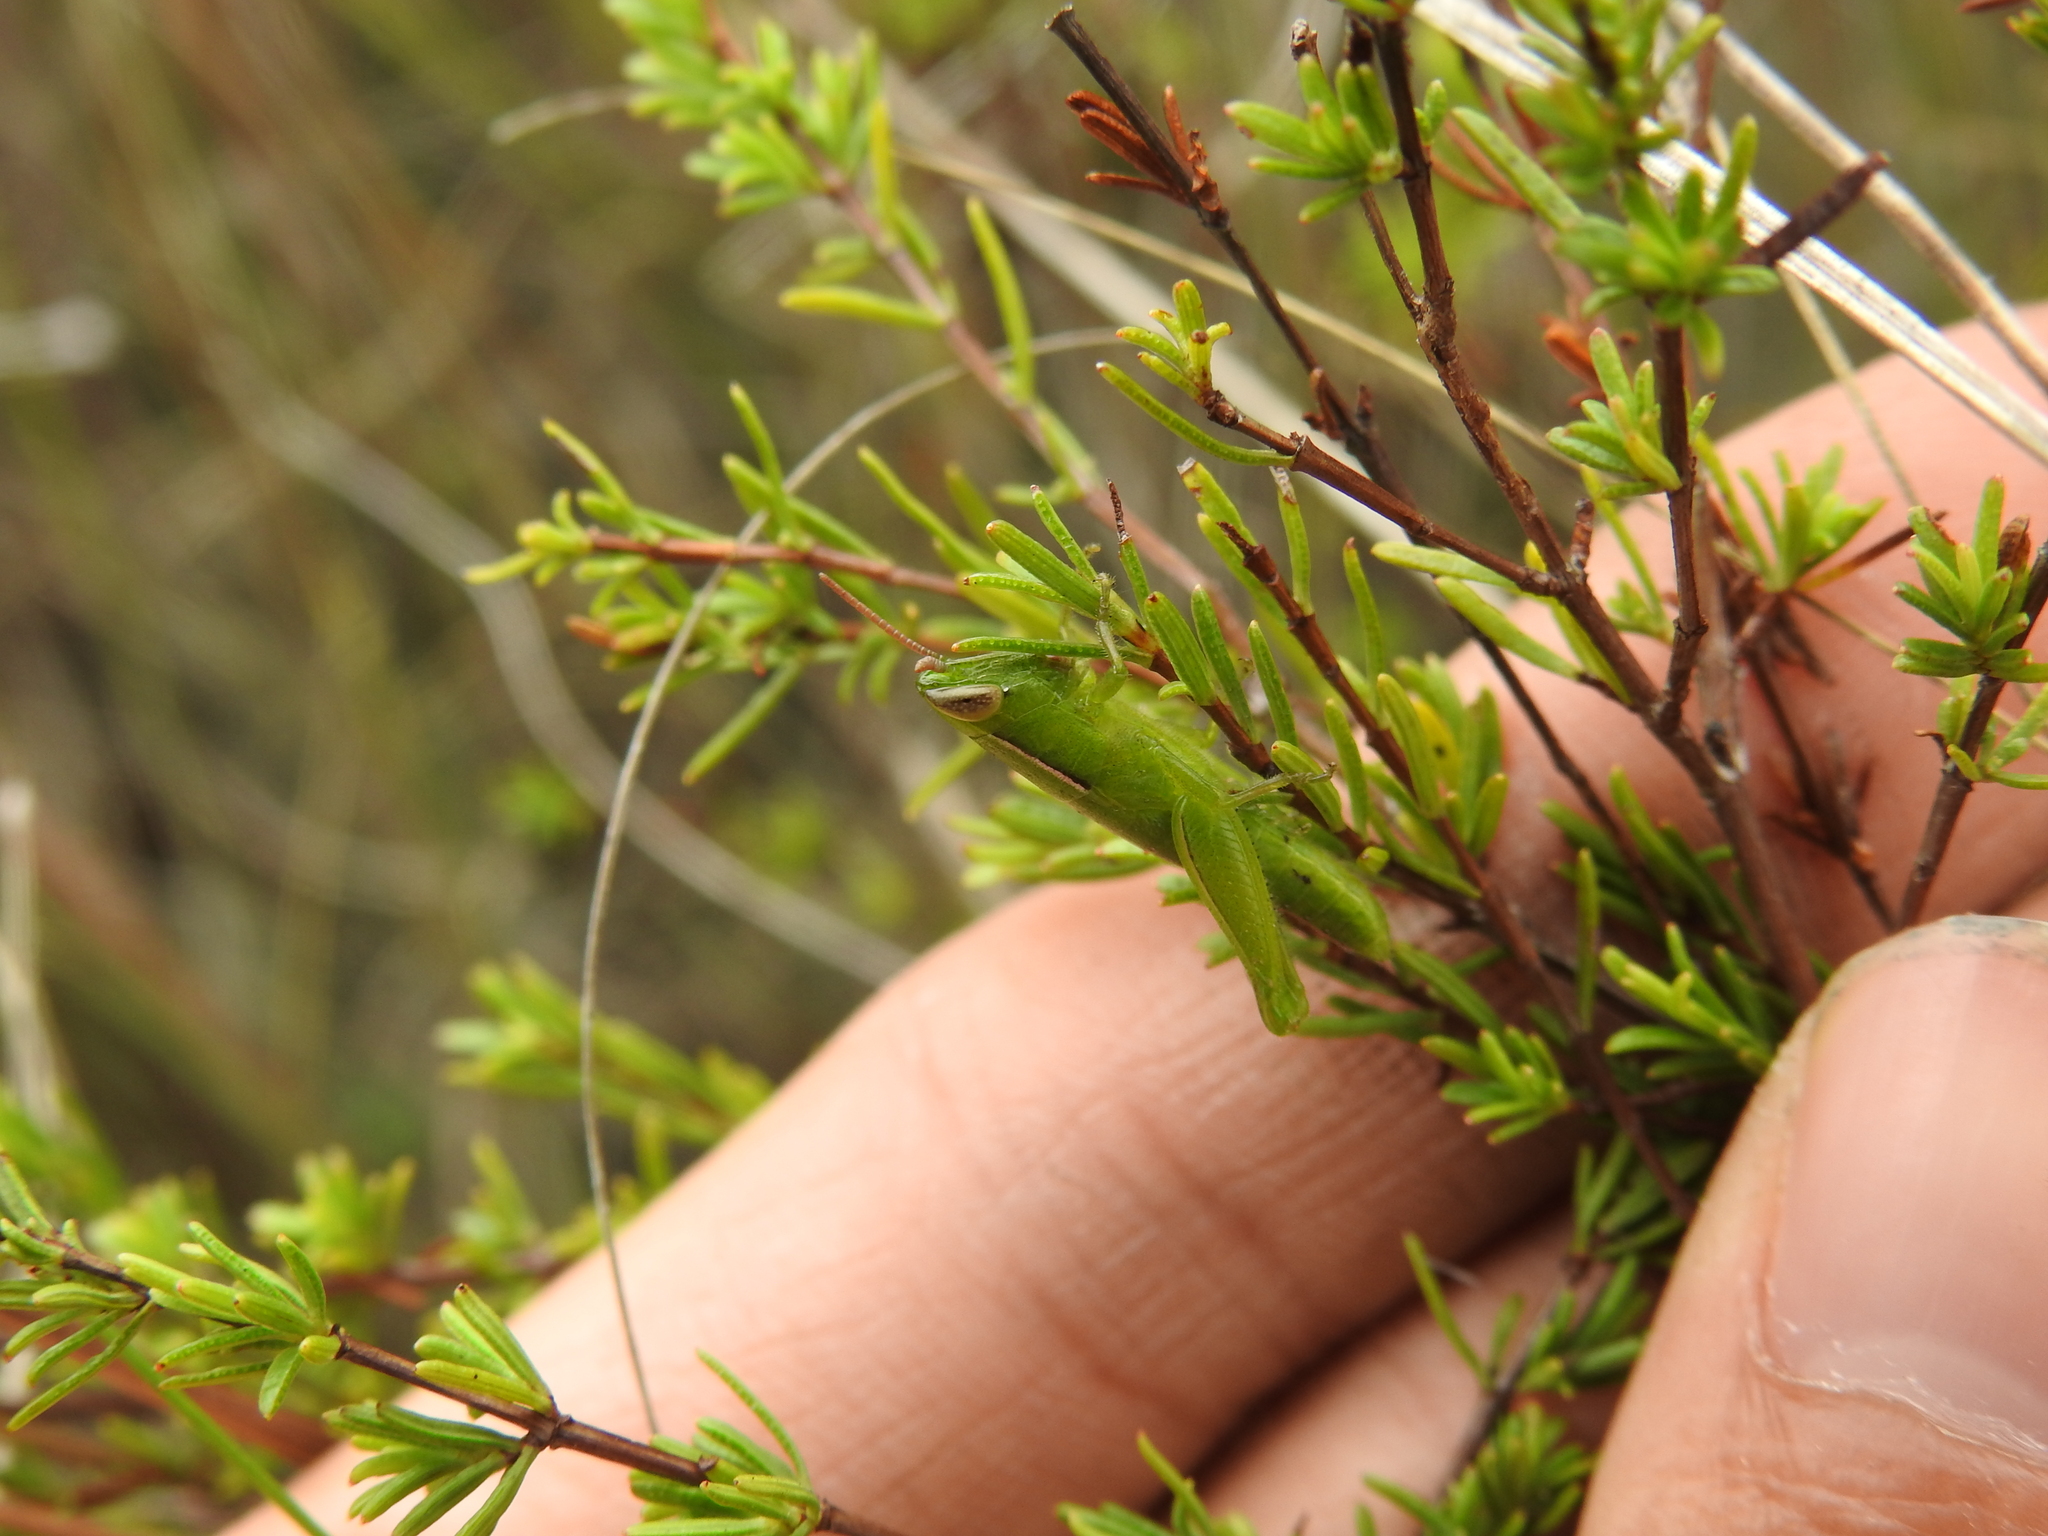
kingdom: Animalia
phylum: Arthropoda
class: Insecta
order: Orthoptera
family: Acrididae
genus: Aptenopedes
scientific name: Aptenopedes clara
